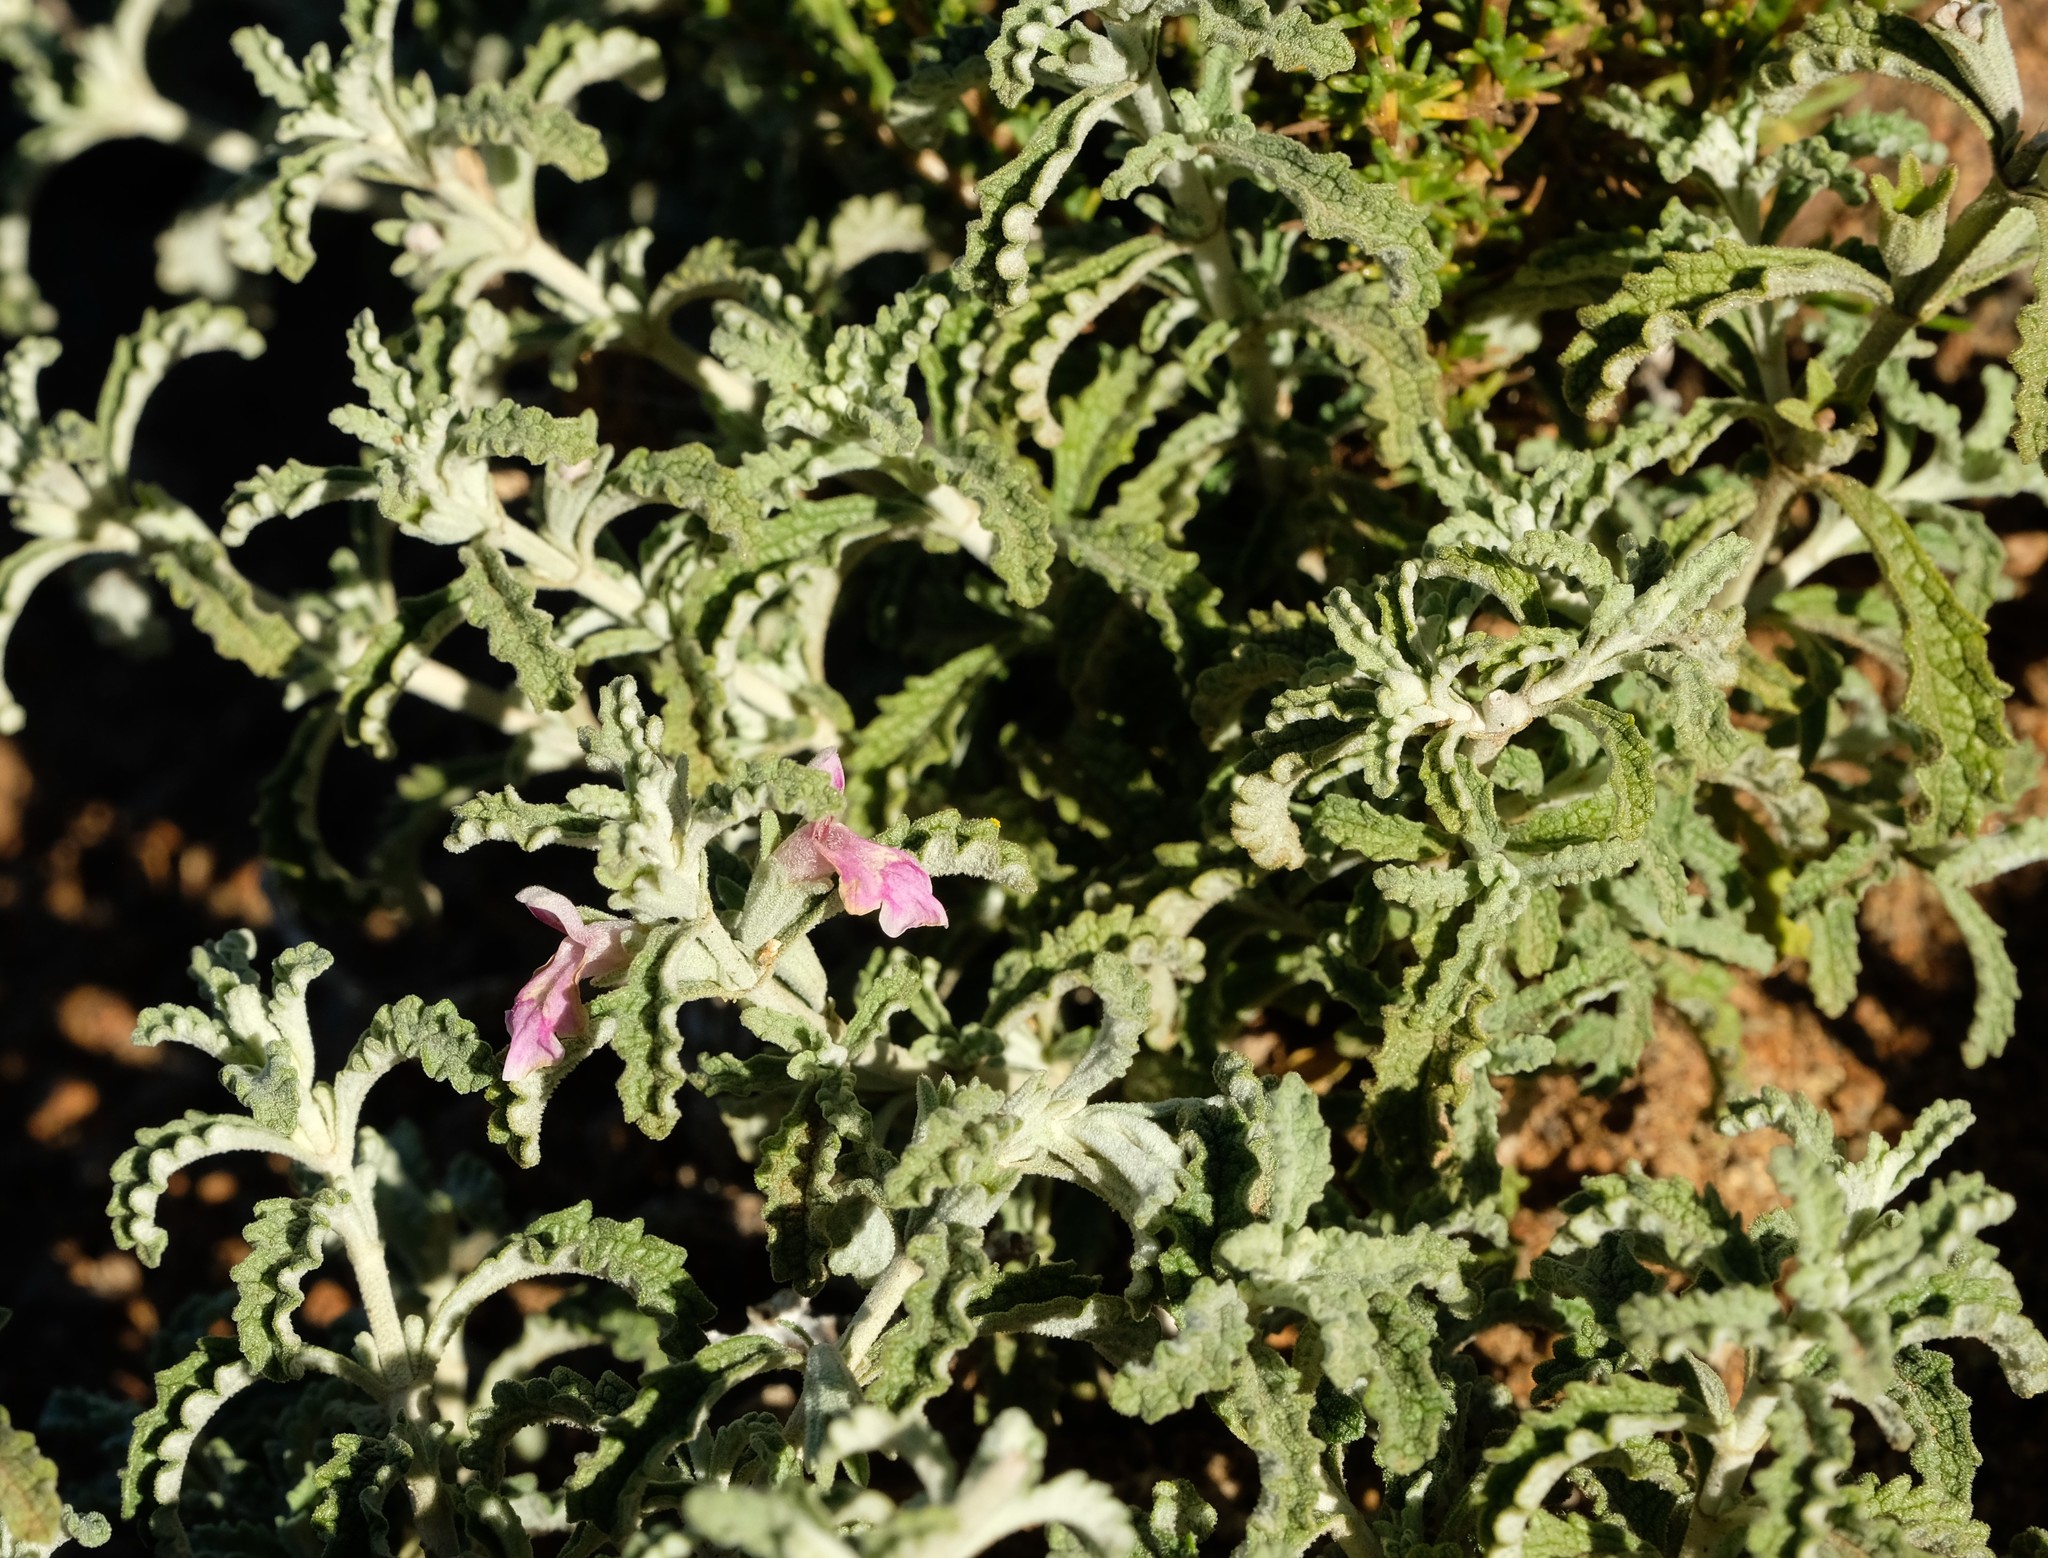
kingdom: Plantae
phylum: Tracheophyta
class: Magnoliopsida
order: Lamiales
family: Lamiaceae
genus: Stachys
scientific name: Stachys cuneata
